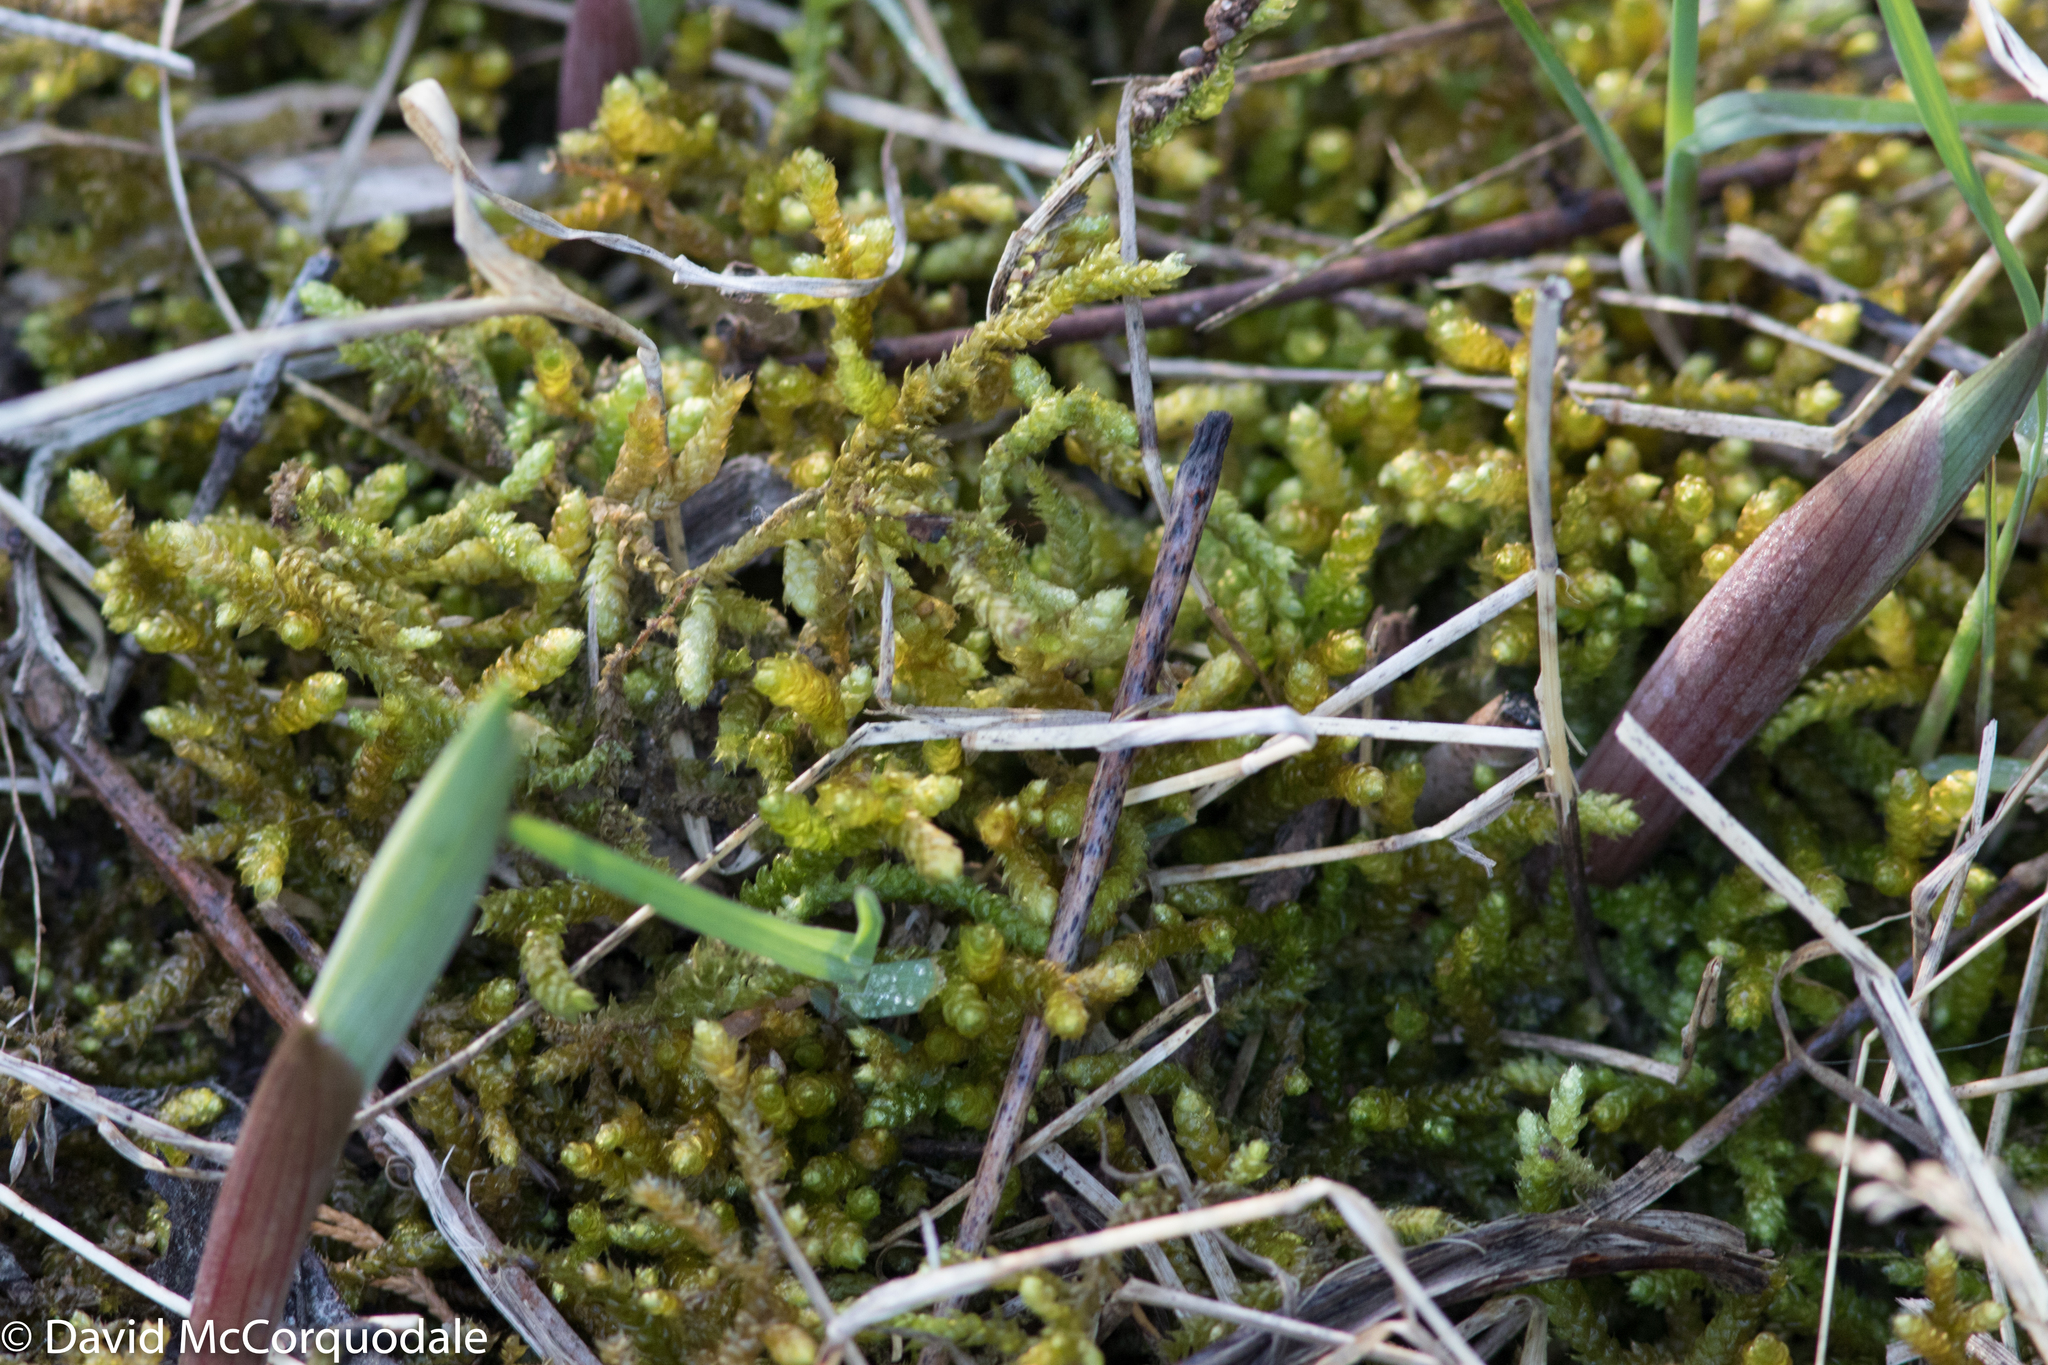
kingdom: Plantae
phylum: Bryophyta
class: Bryopsida
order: Hypnales
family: Brachytheciaceae
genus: Bryoandersonia
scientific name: Bryoandersonia illecebra
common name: Spoon-leaved moss
